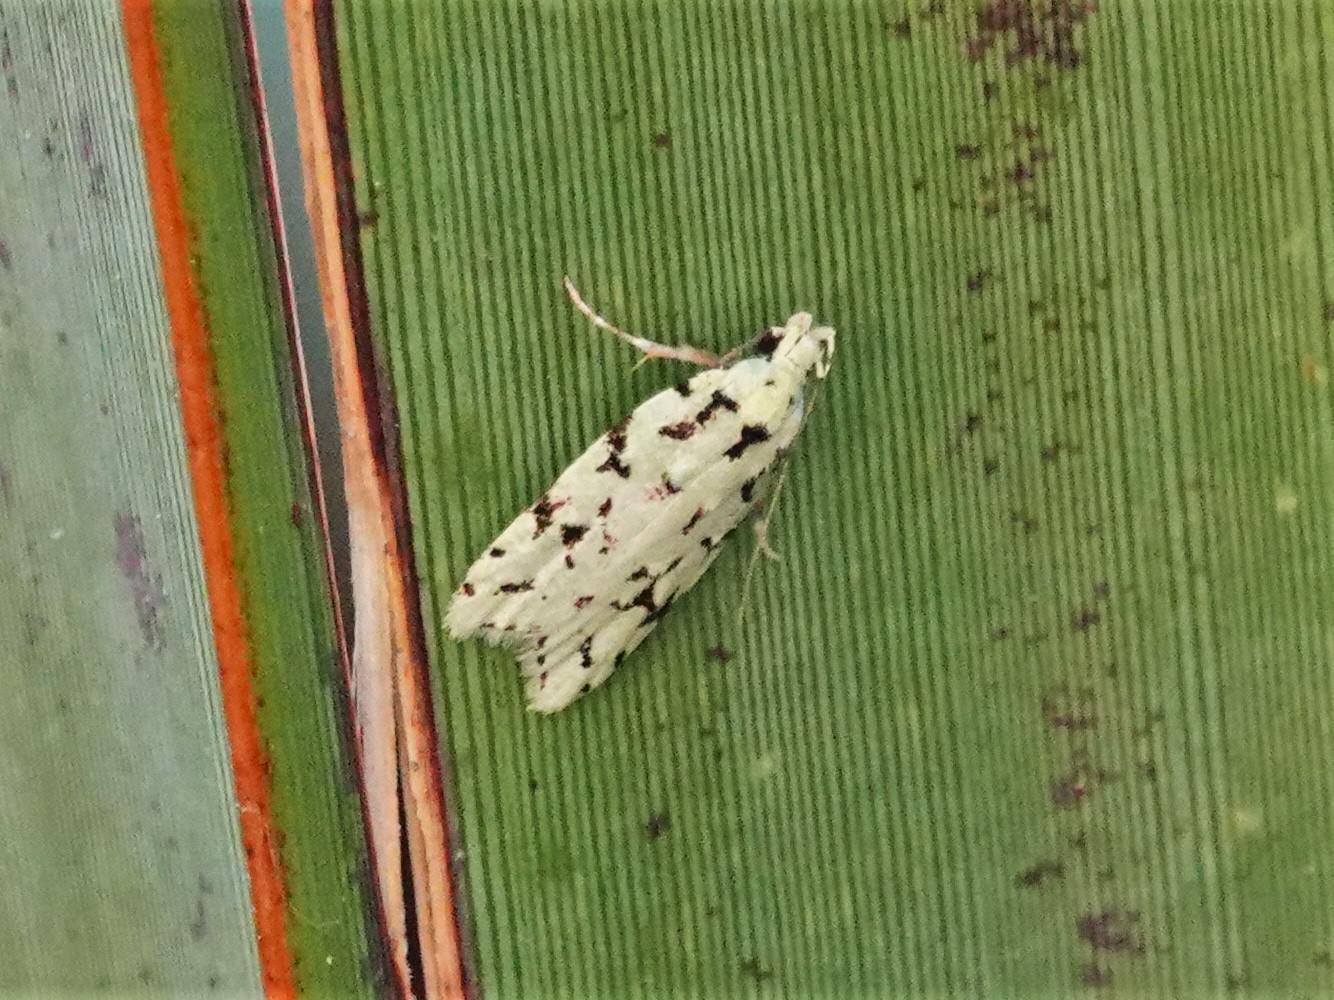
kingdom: Animalia
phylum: Arthropoda
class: Insecta
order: Lepidoptera
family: Oecophoridae
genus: Izatha
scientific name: Izatha peroneanella
